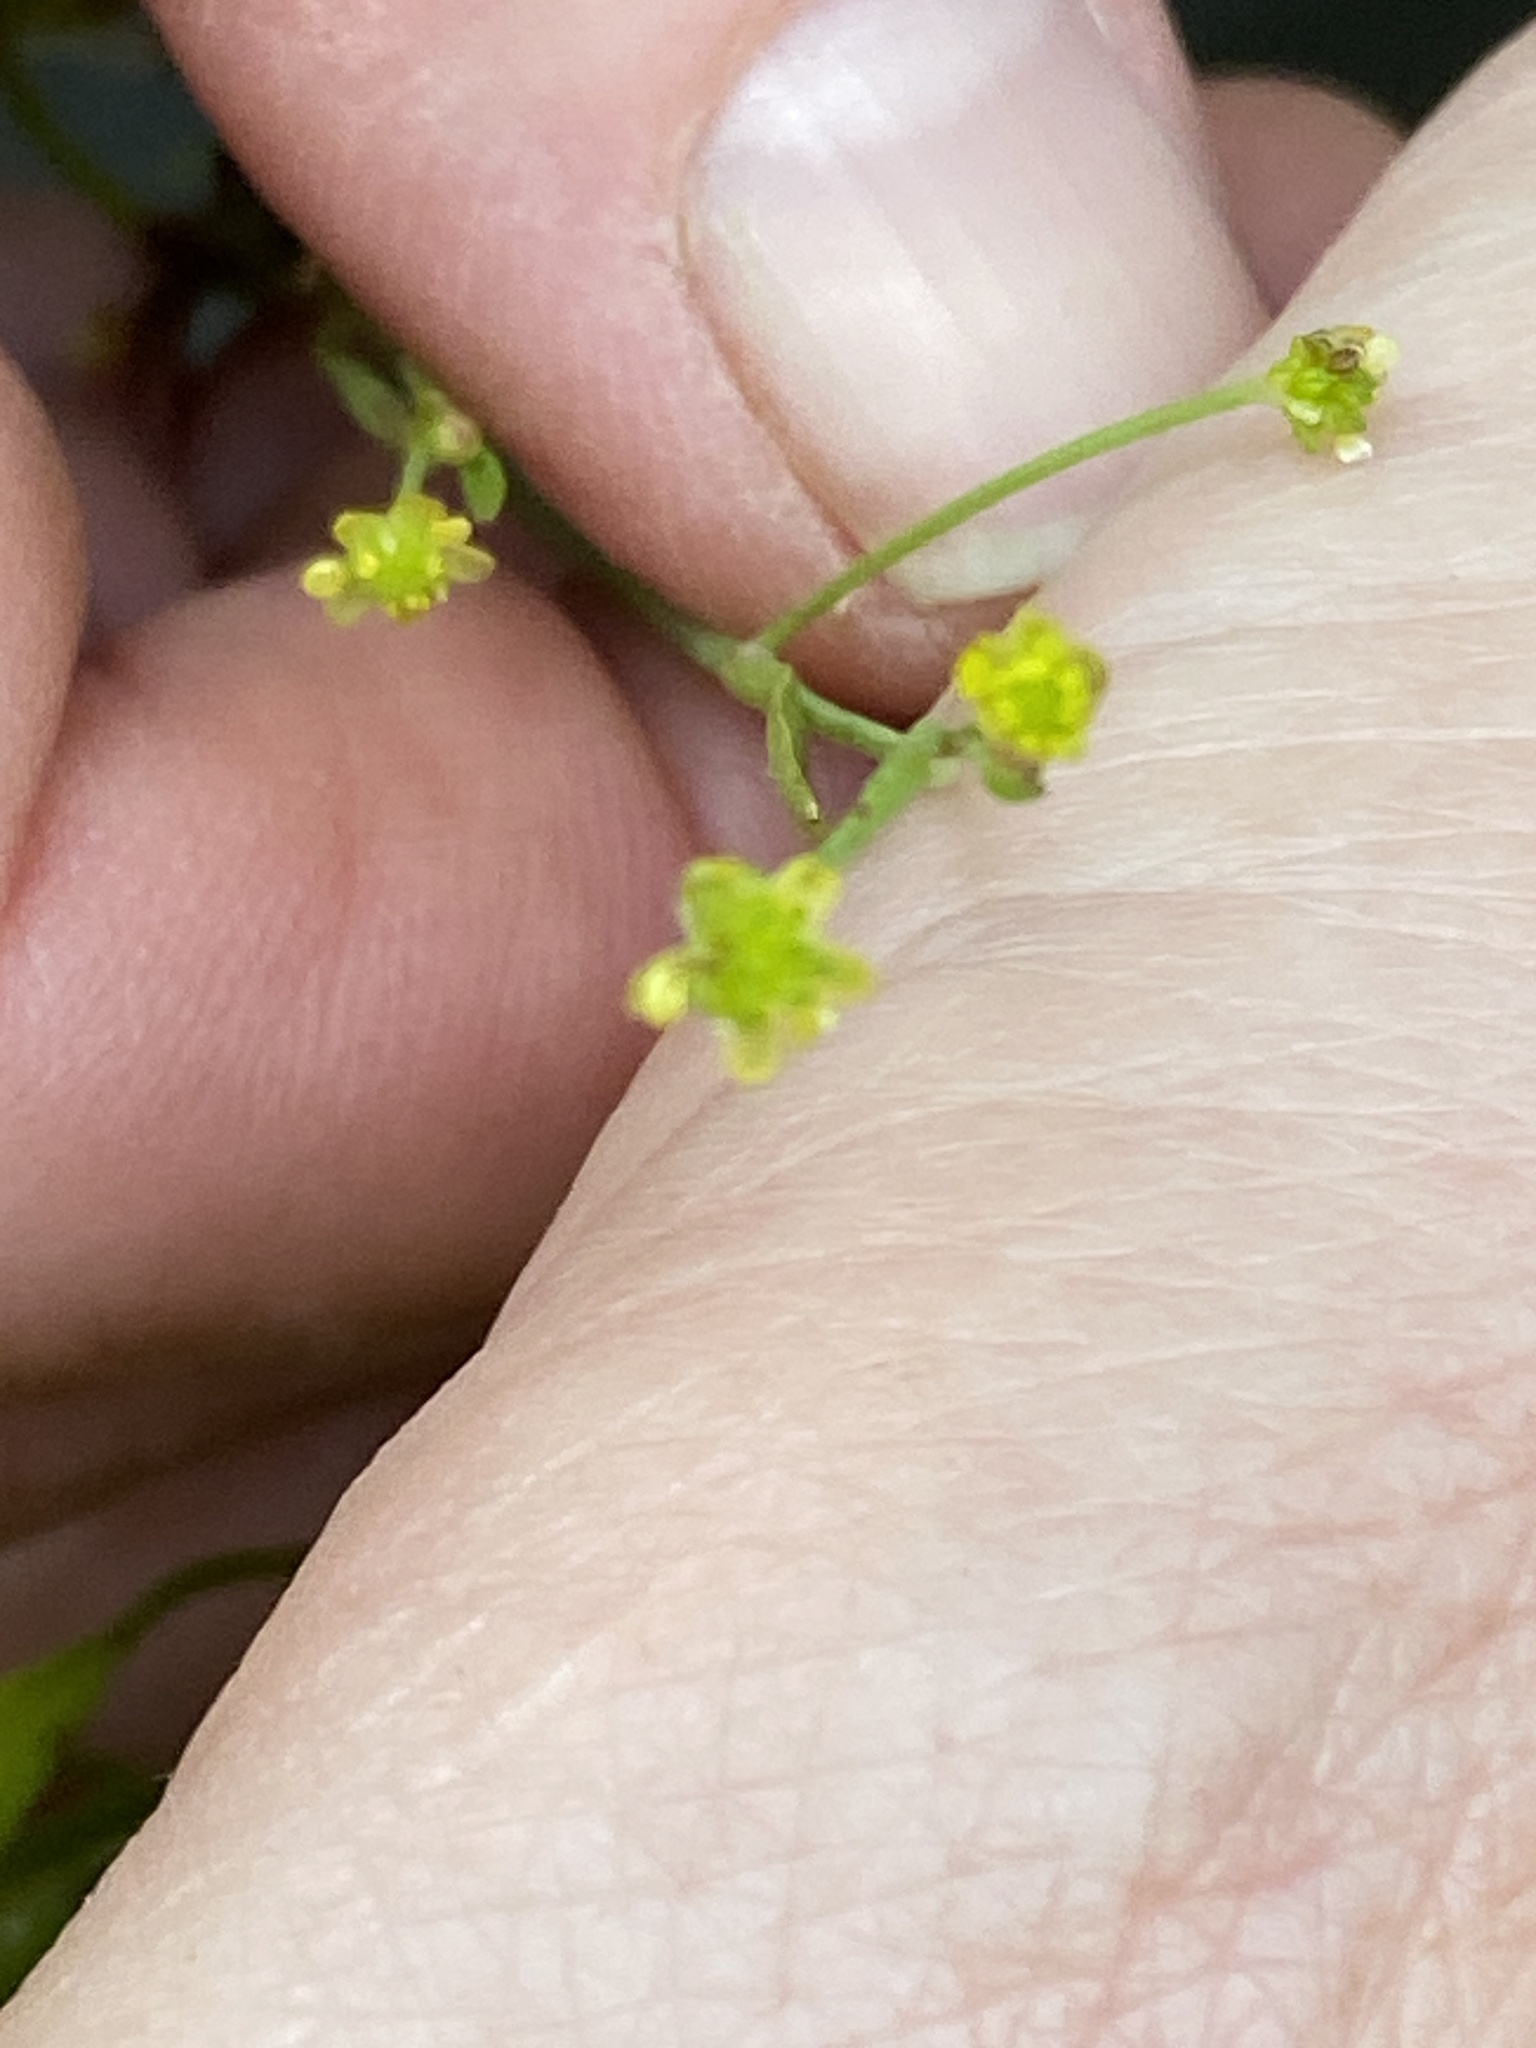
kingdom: Plantae
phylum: Tracheophyta
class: Magnoliopsida
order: Ranunculales
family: Ranunculaceae
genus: Ranunculus
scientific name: Ranunculus pusillus
